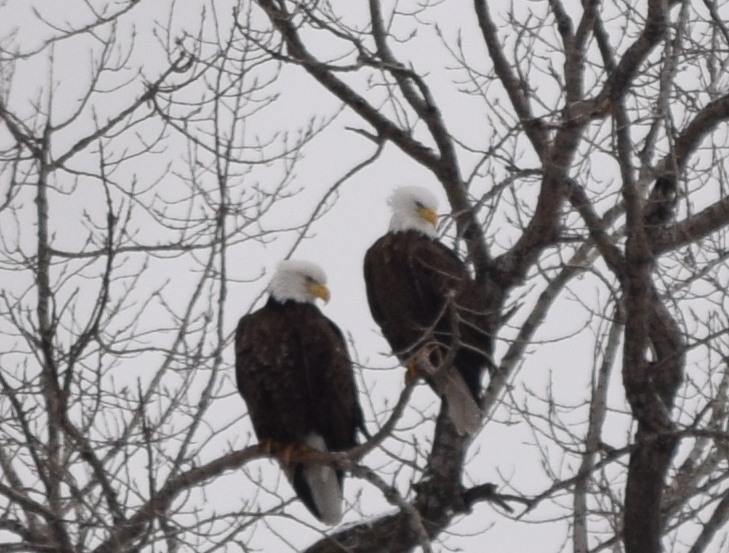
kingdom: Animalia
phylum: Chordata
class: Aves
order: Accipitriformes
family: Accipitridae
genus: Haliaeetus
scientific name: Haliaeetus leucocephalus
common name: Bald eagle
